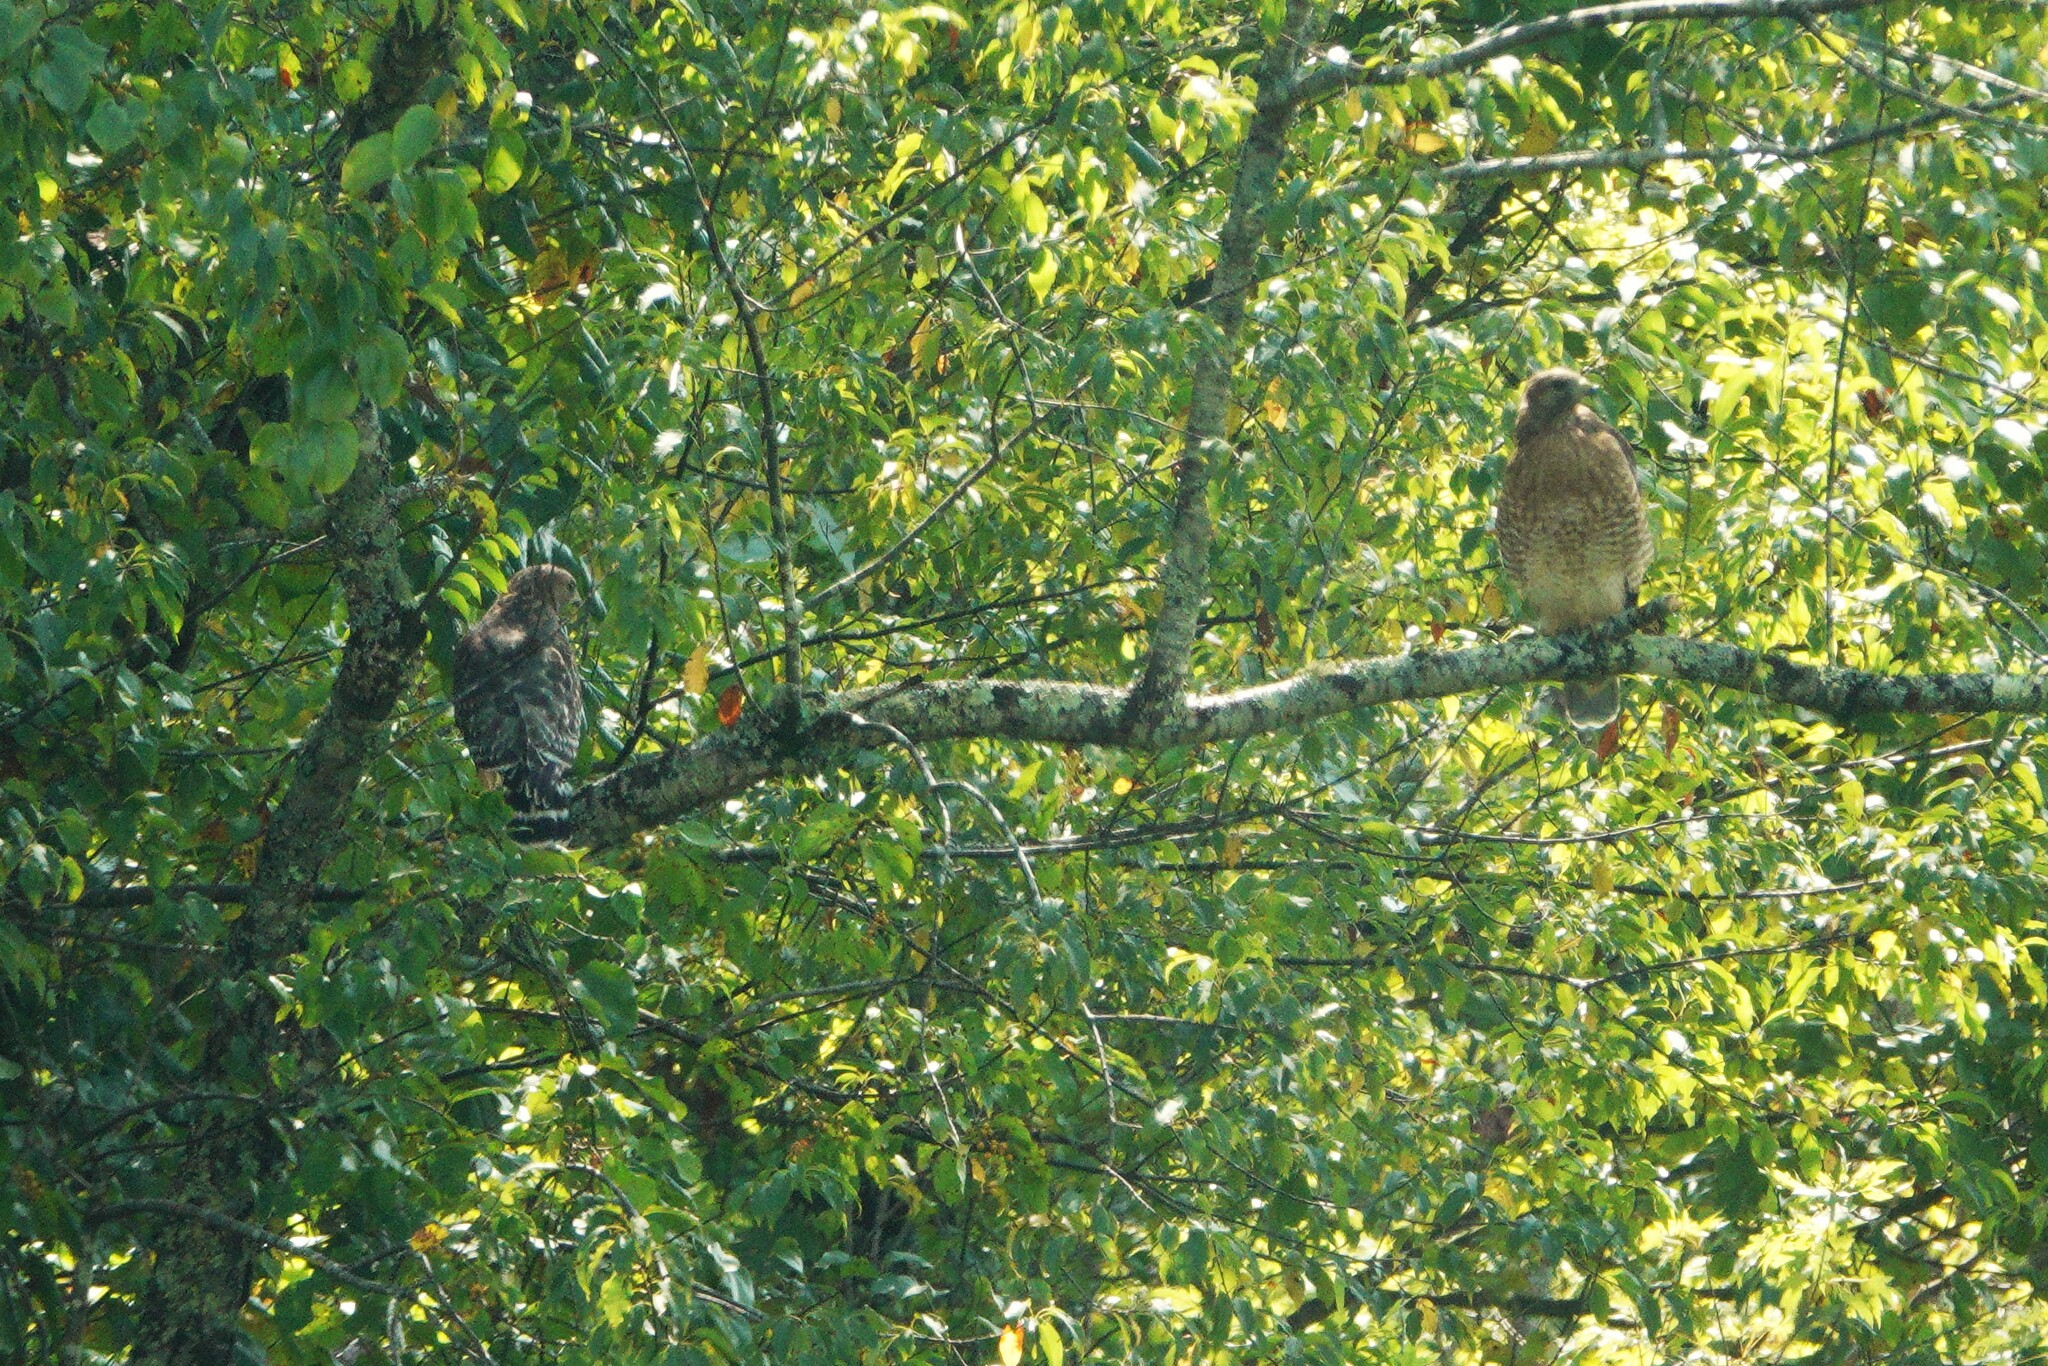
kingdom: Animalia
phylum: Chordata
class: Aves
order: Accipitriformes
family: Accipitridae
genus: Buteo
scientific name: Buteo lineatus
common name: Red-shouldered hawk
